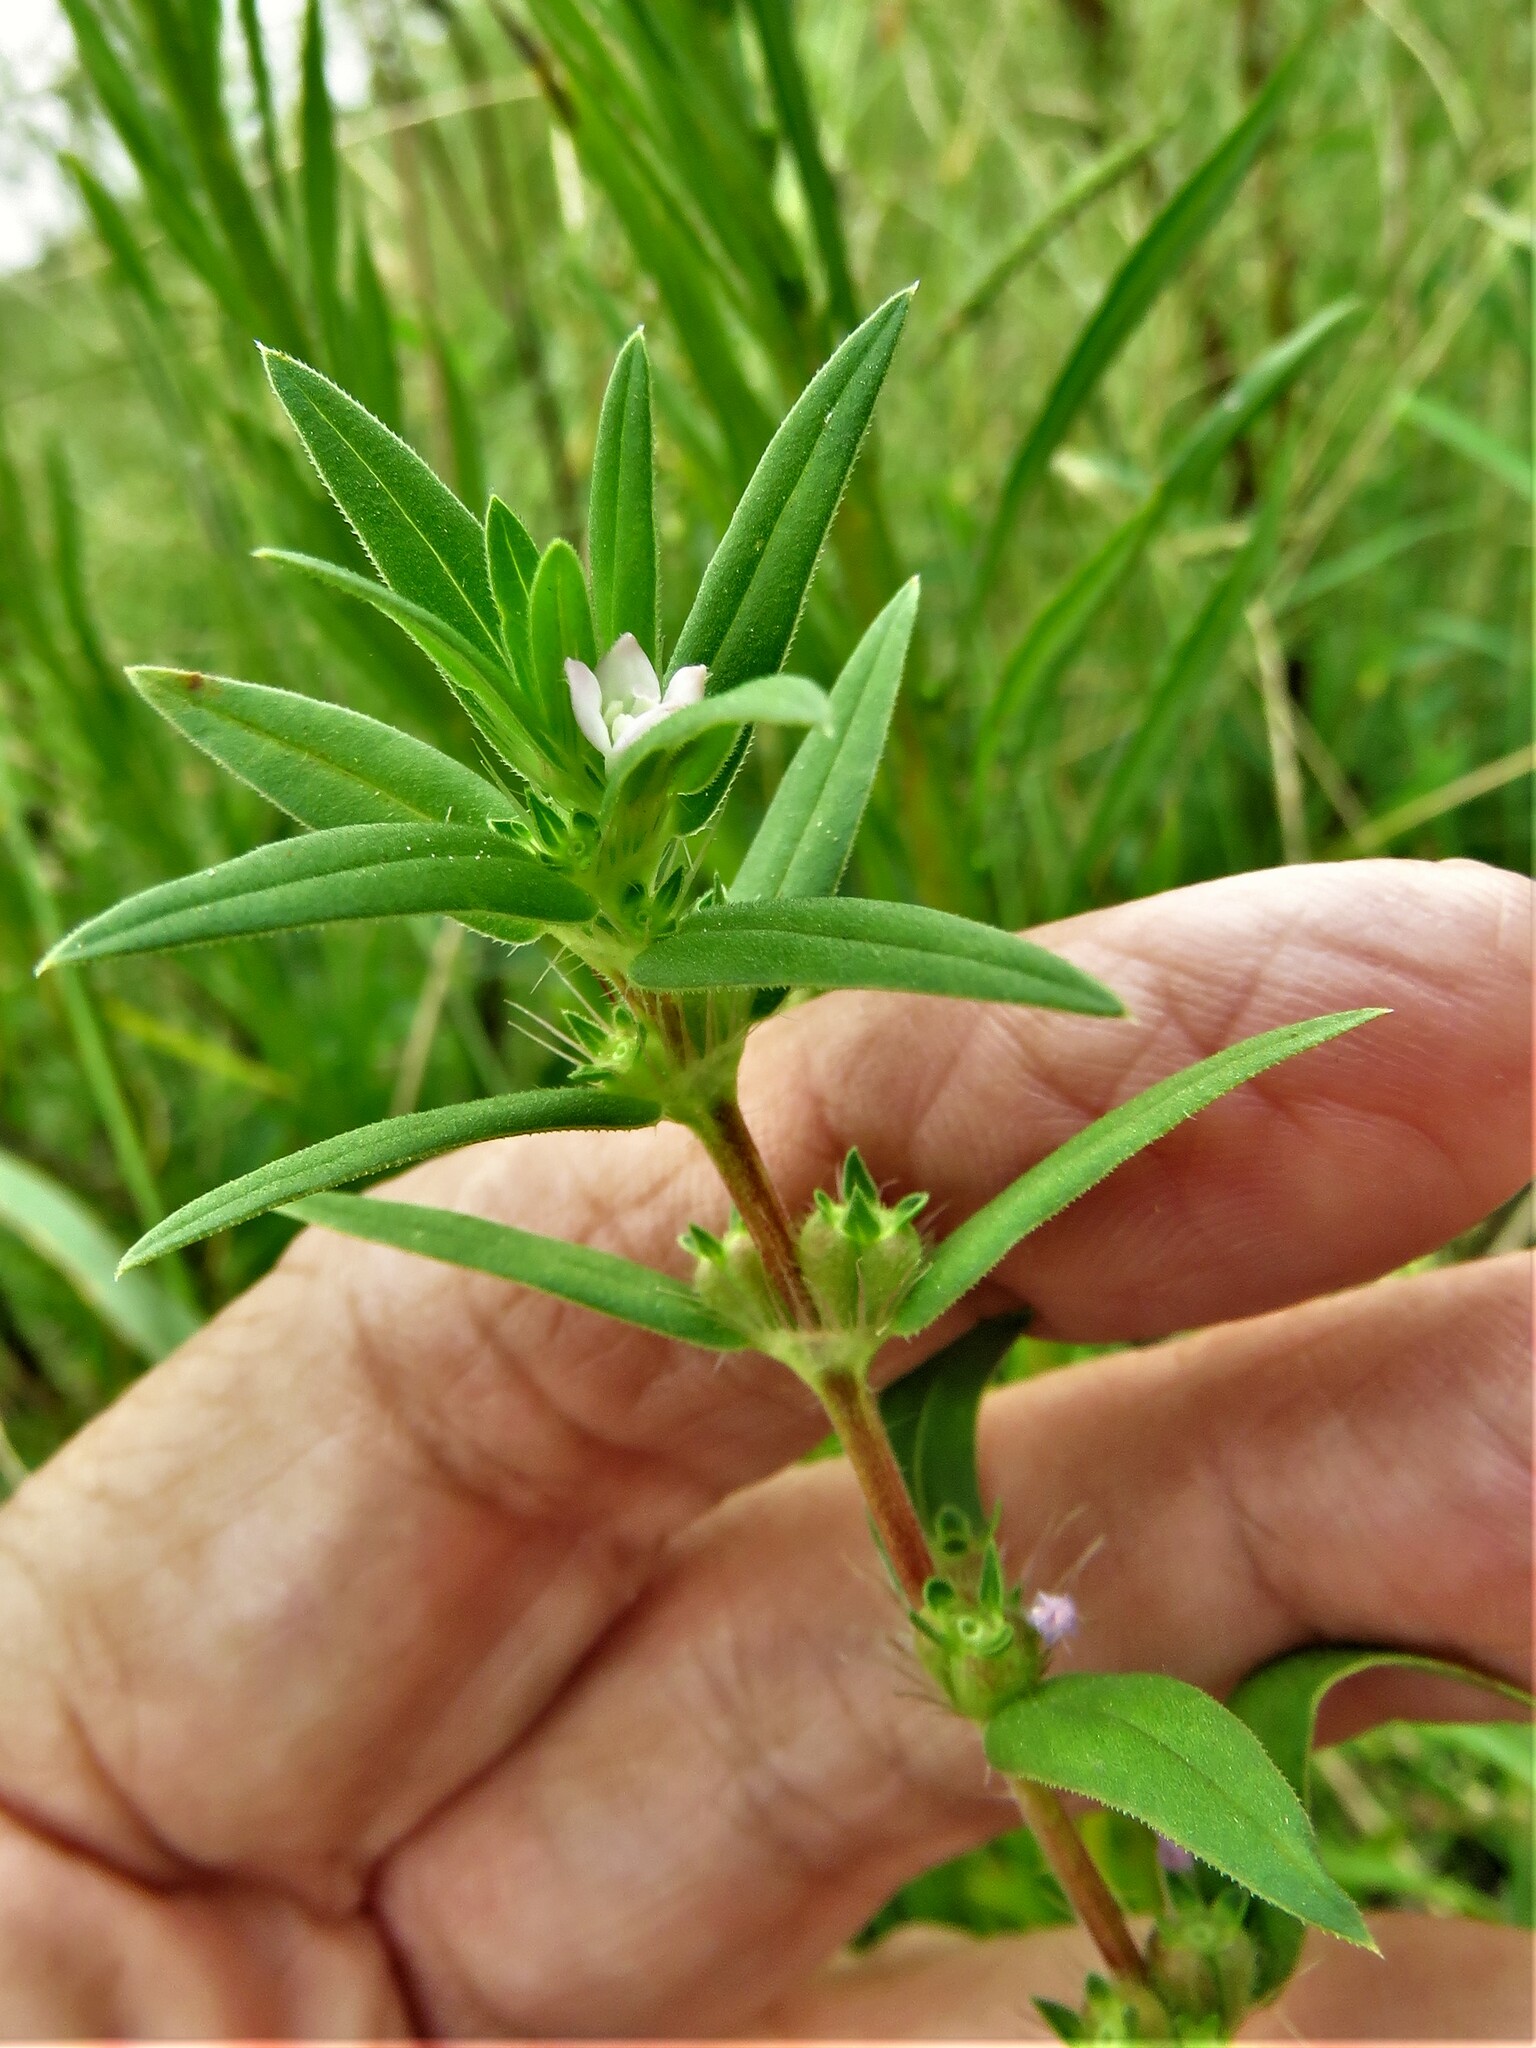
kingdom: Plantae
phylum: Tracheophyta
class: Magnoliopsida
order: Gentianales
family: Rubiaceae
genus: Hexasepalum
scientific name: Hexasepalum teres
